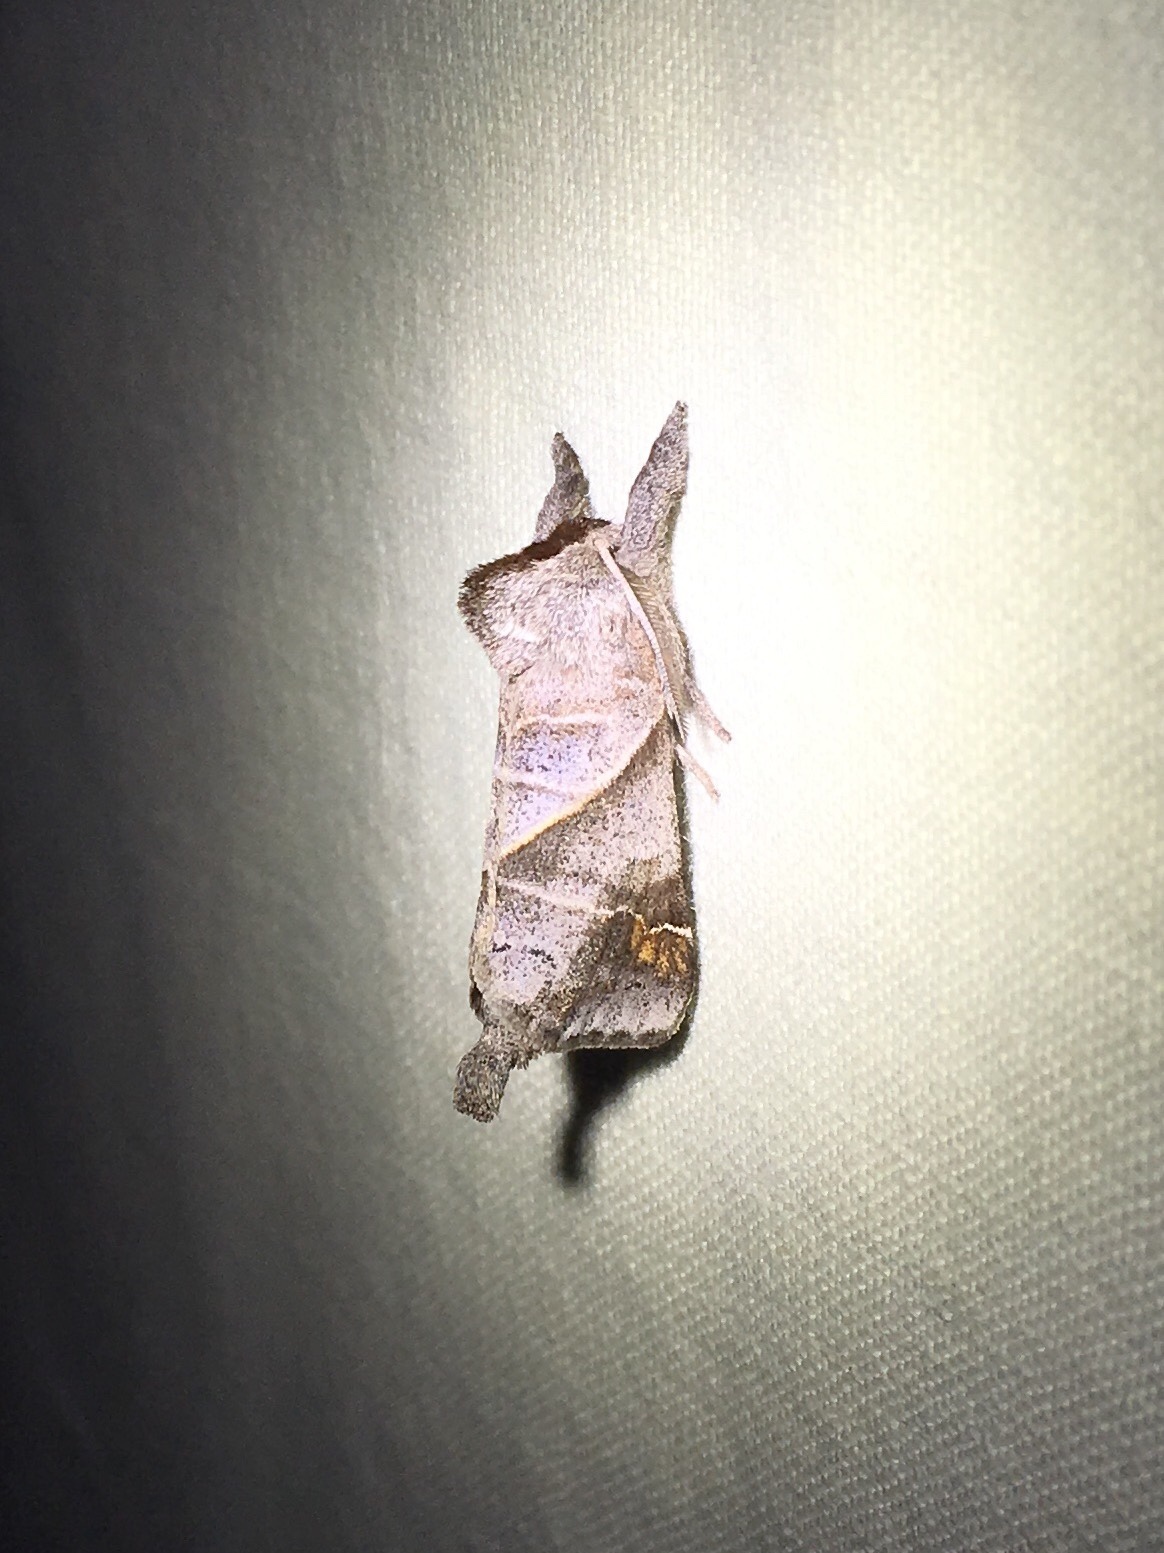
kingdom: Animalia
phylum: Arthropoda
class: Insecta
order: Lepidoptera
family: Notodontidae
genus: Clostera
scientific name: Clostera apicalis
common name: Apical prominent
